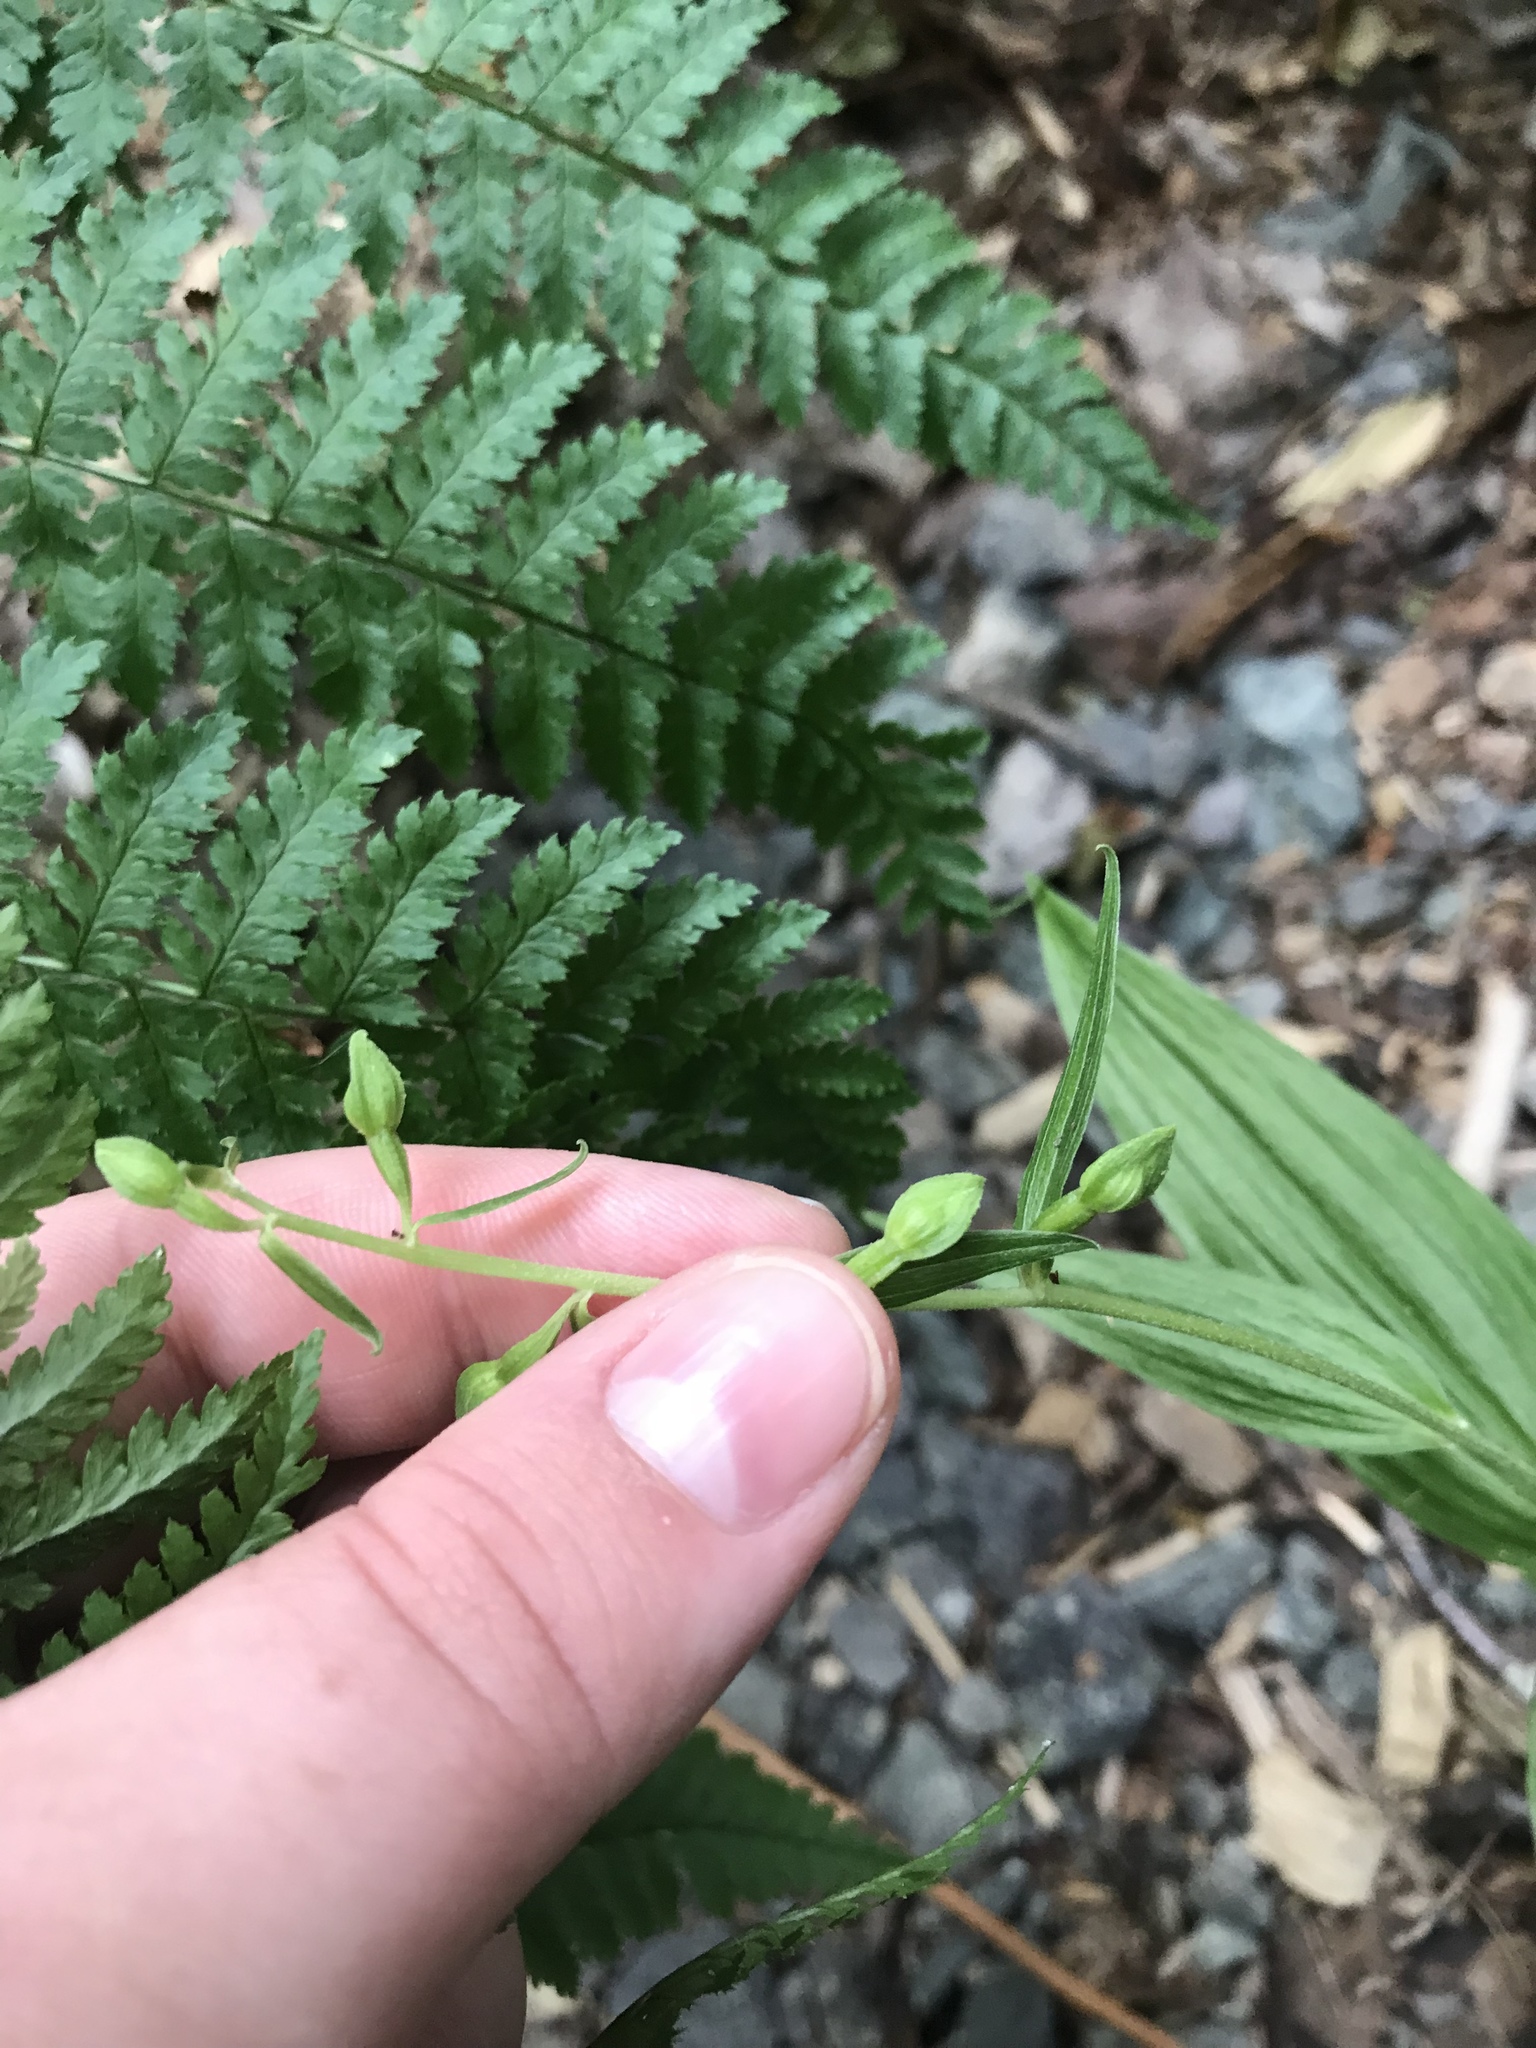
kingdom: Plantae
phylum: Tracheophyta
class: Liliopsida
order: Asparagales
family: Orchidaceae
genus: Epipactis
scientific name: Epipactis helleborine
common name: Broad-leaved helleborine
